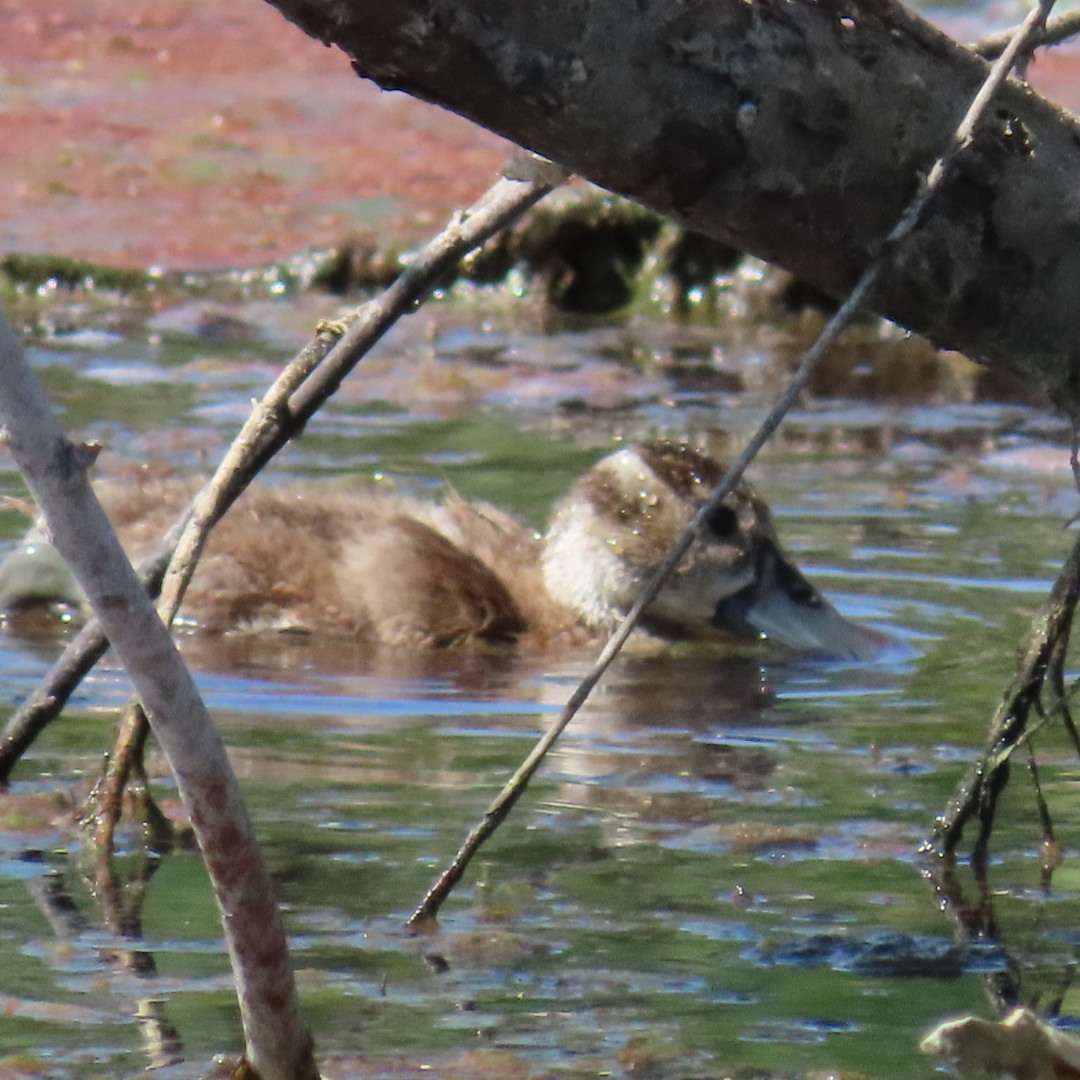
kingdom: Animalia
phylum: Chordata
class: Aves
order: Anseriformes
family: Anatidae
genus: Dendrocygna
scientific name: Dendrocygna autumnalis
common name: Black-bellied whistling duck
